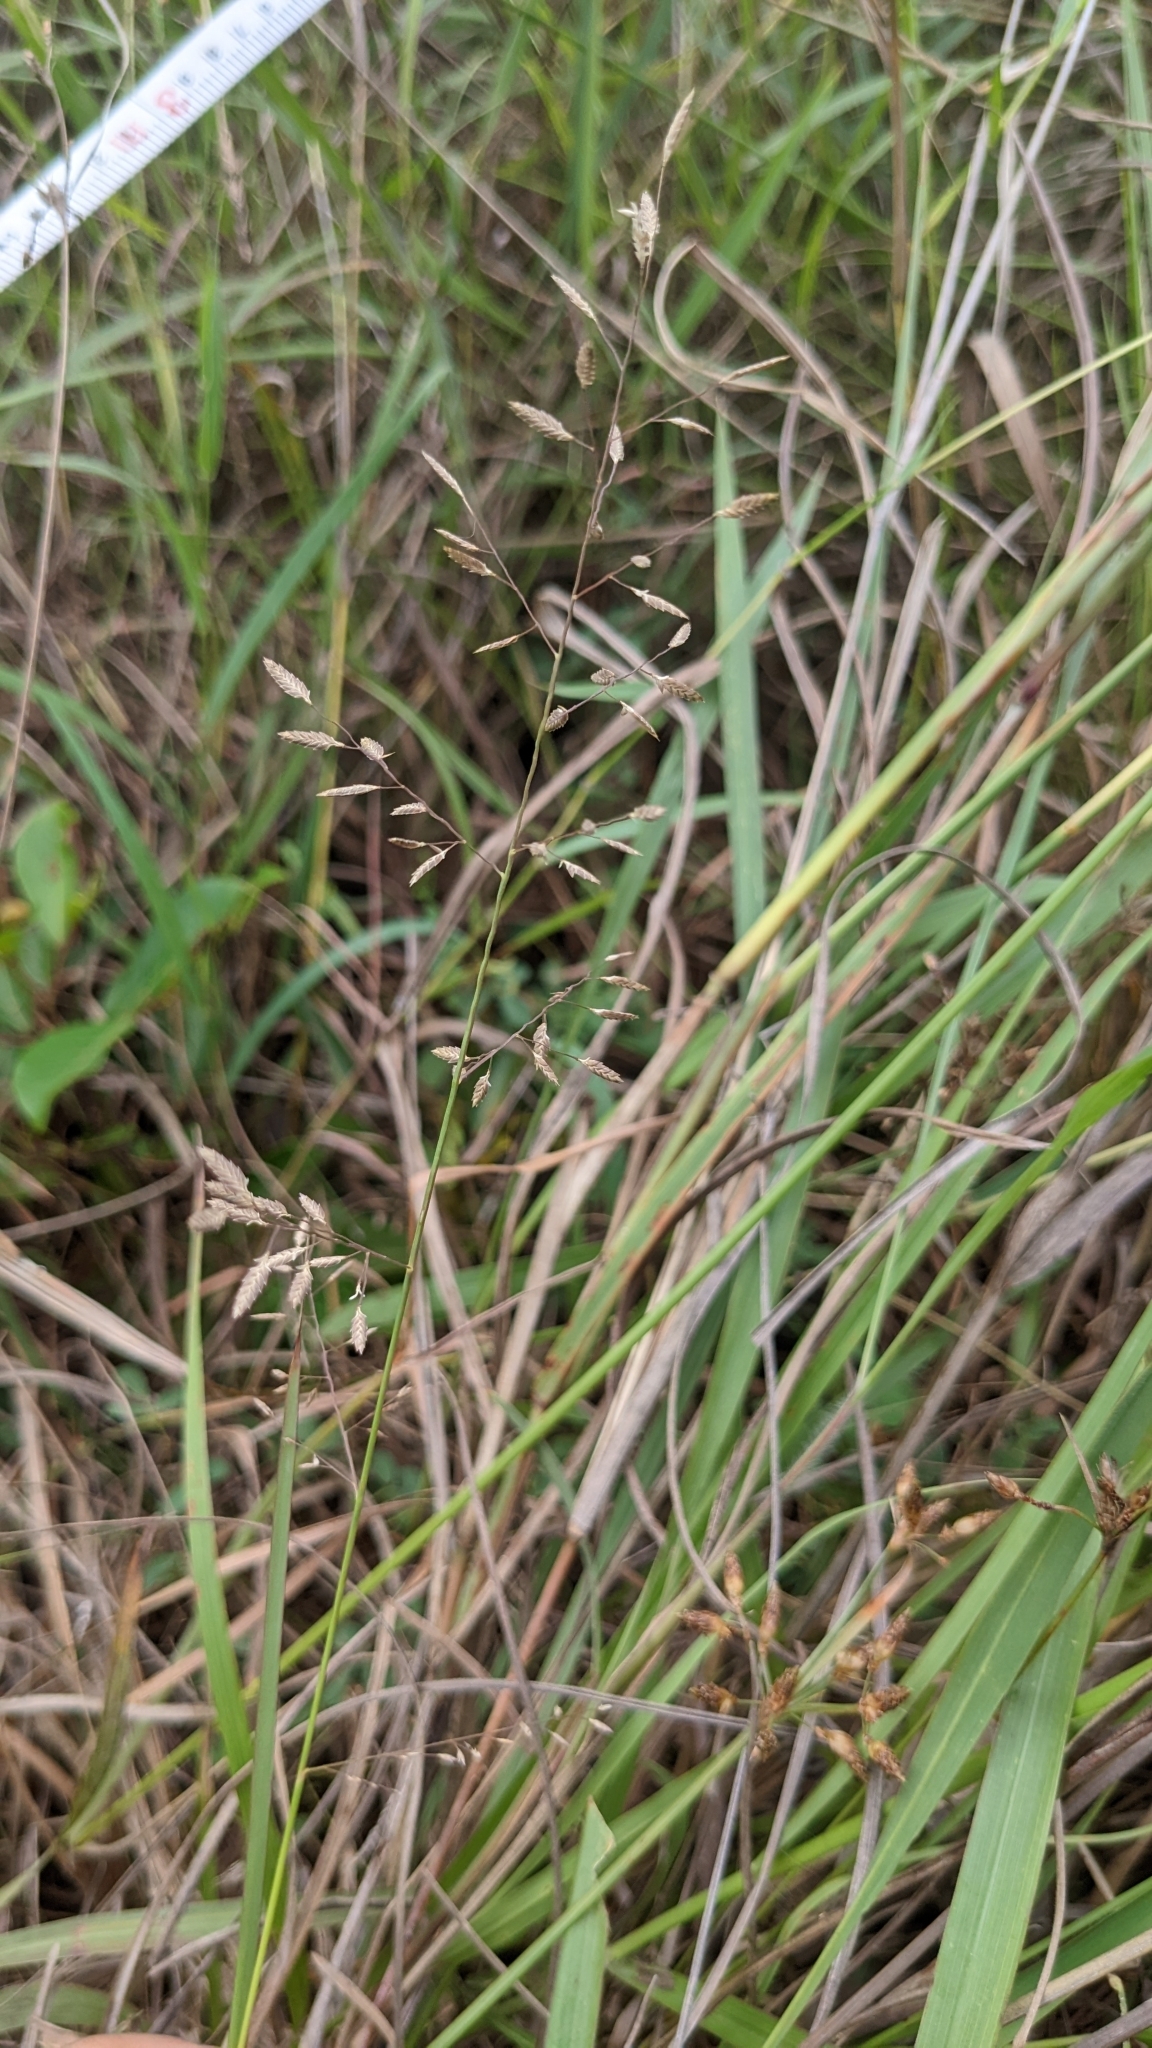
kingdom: Plantae
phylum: Tracheophyta
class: Liliopsida
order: Poales
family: Poaceae
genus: Eragrostis
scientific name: Eragrostis brownii
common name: Lovegrass
